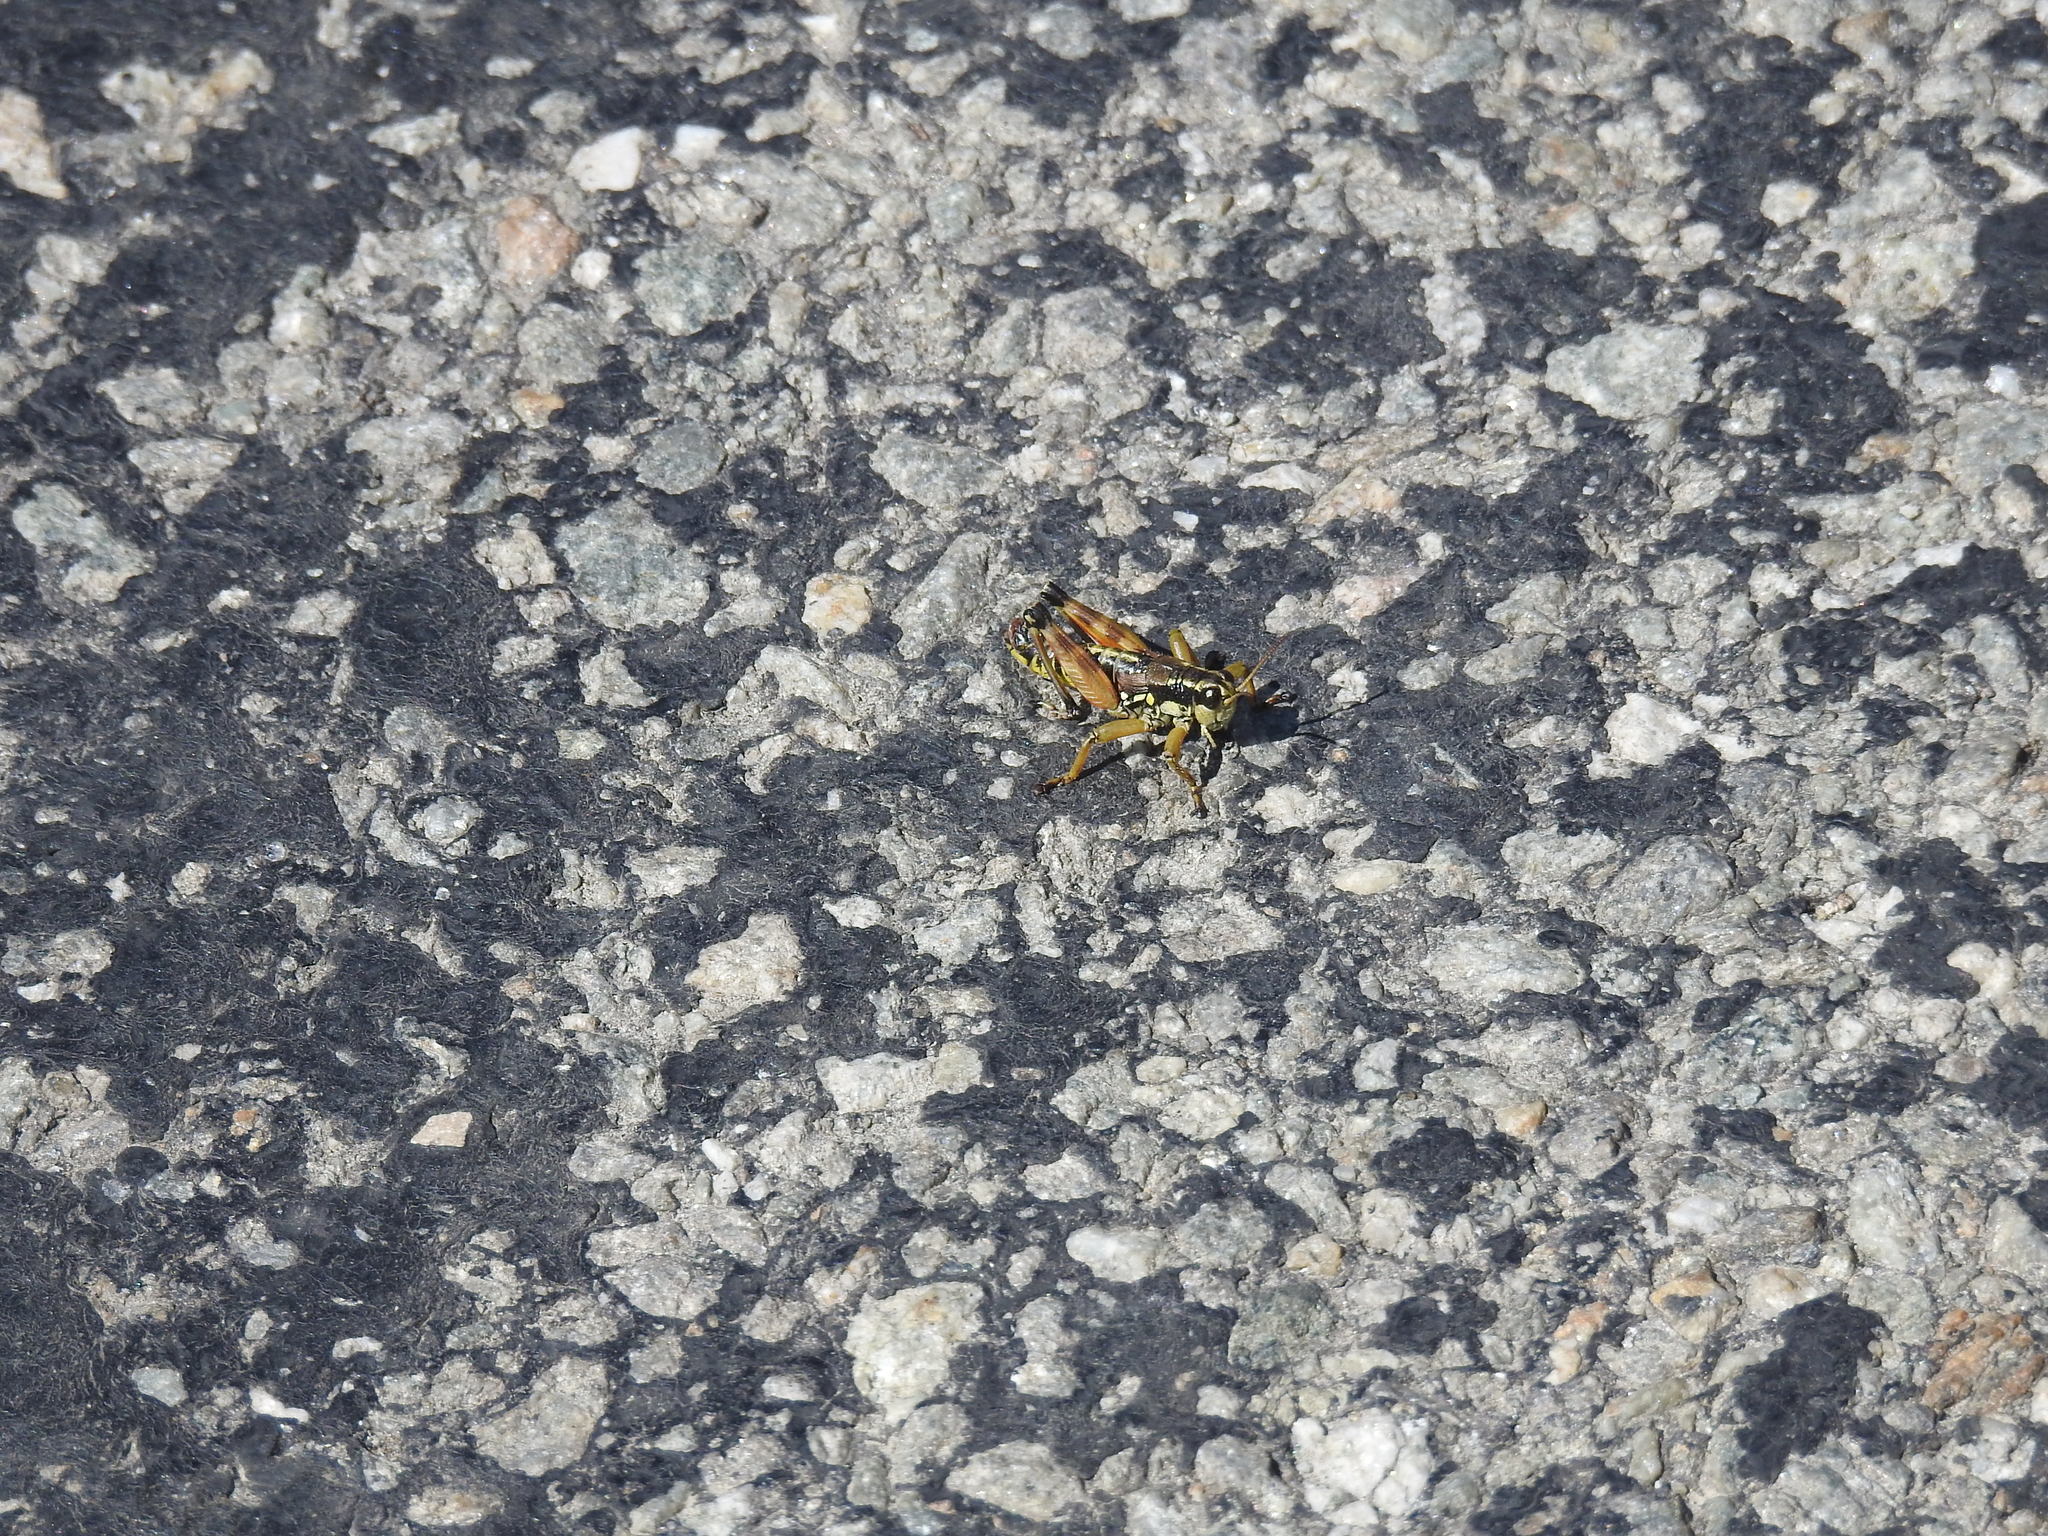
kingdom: Animalia
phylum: Arthropoda
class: Insecta
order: Orthoptera
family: Acrididae
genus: Podisma
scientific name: Podisma pedestris
